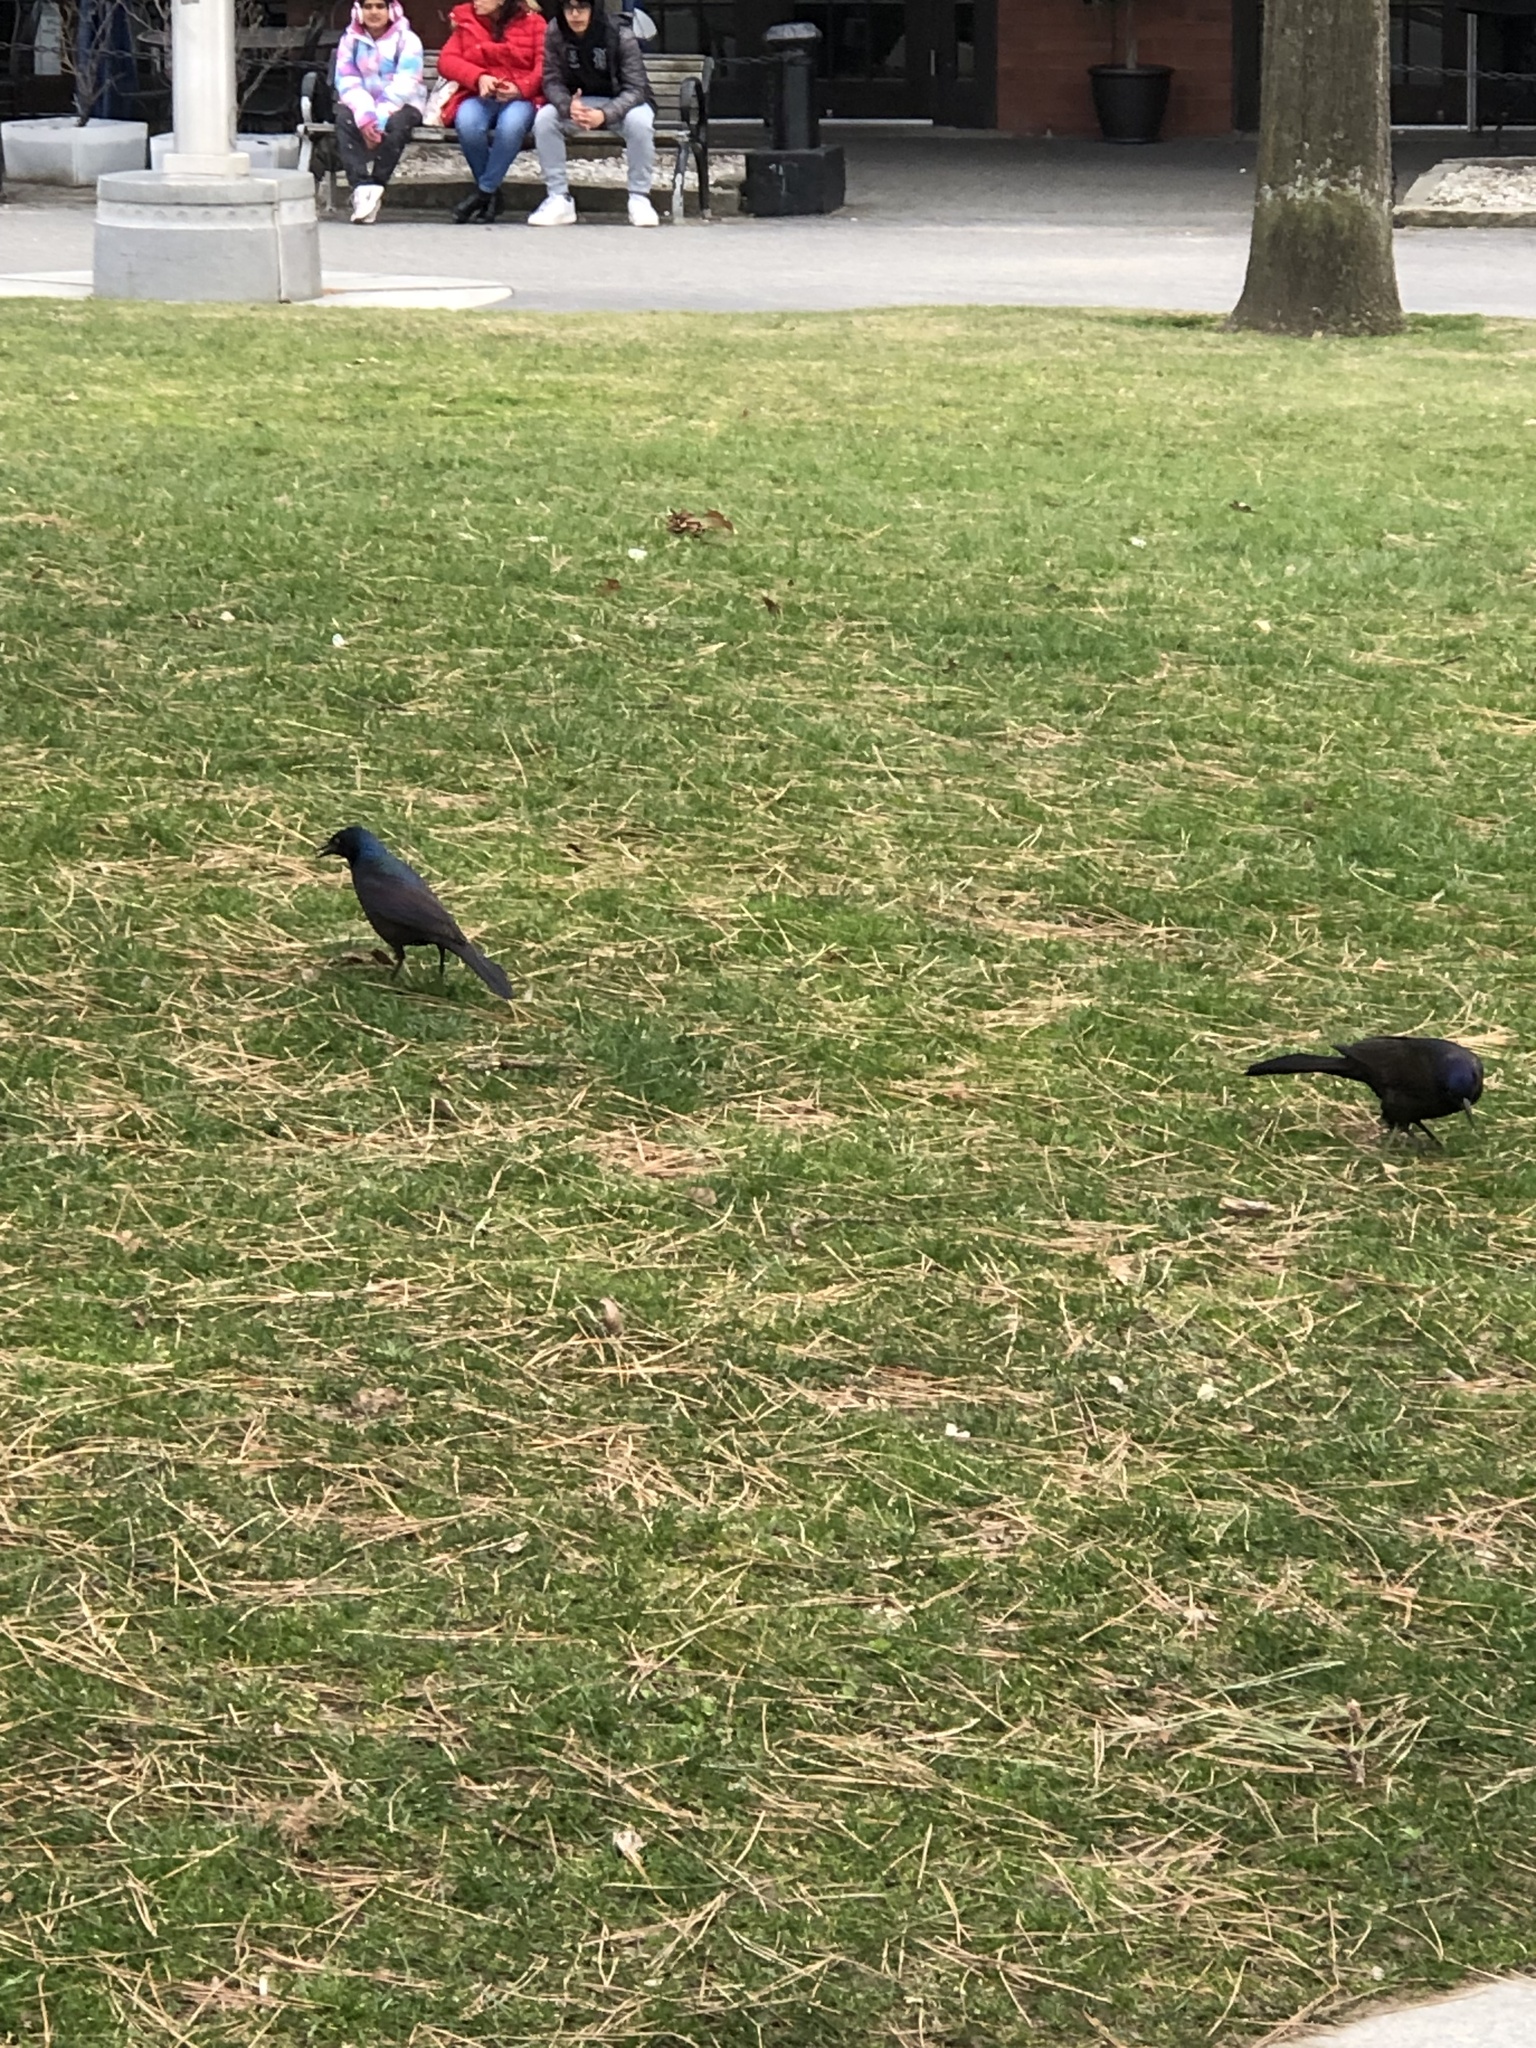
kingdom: Animalia
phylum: Chordata
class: Aves
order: Passeriformes
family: Icteridae
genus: Quiscalus
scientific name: Quiscalus quiscula
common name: Common grackle
